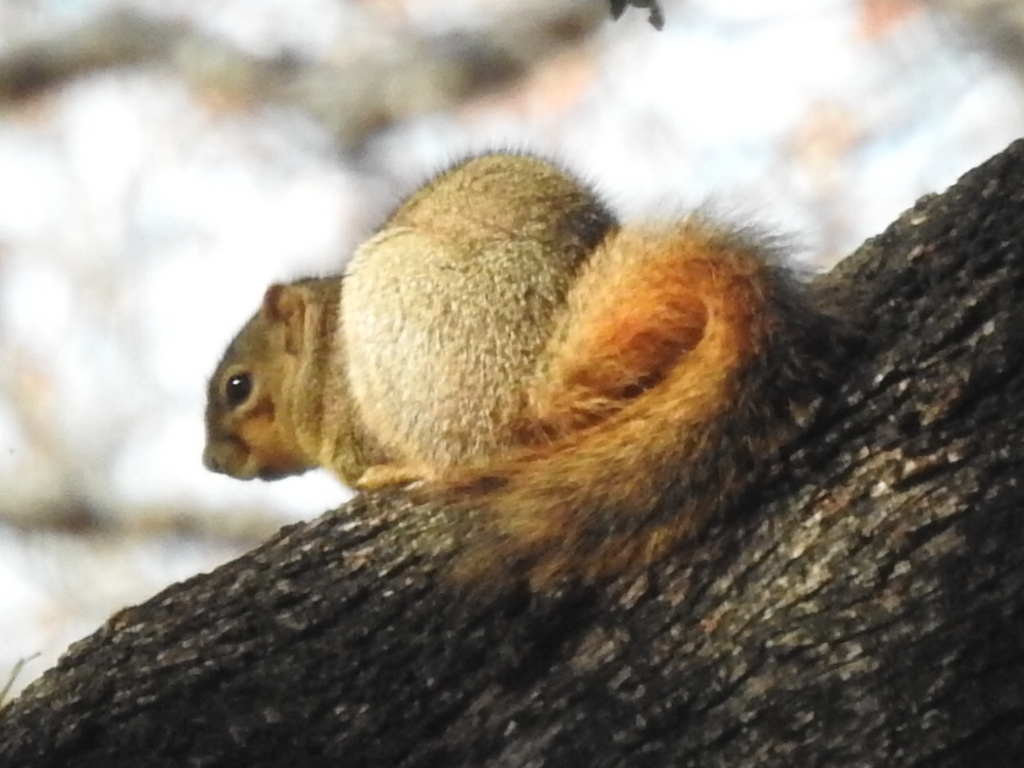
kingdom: Animalia
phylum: Chordata
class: Mammalia
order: Rodentia
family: Sciuridae
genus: Sciurus
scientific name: Sciurus niger
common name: Fox squirrel
